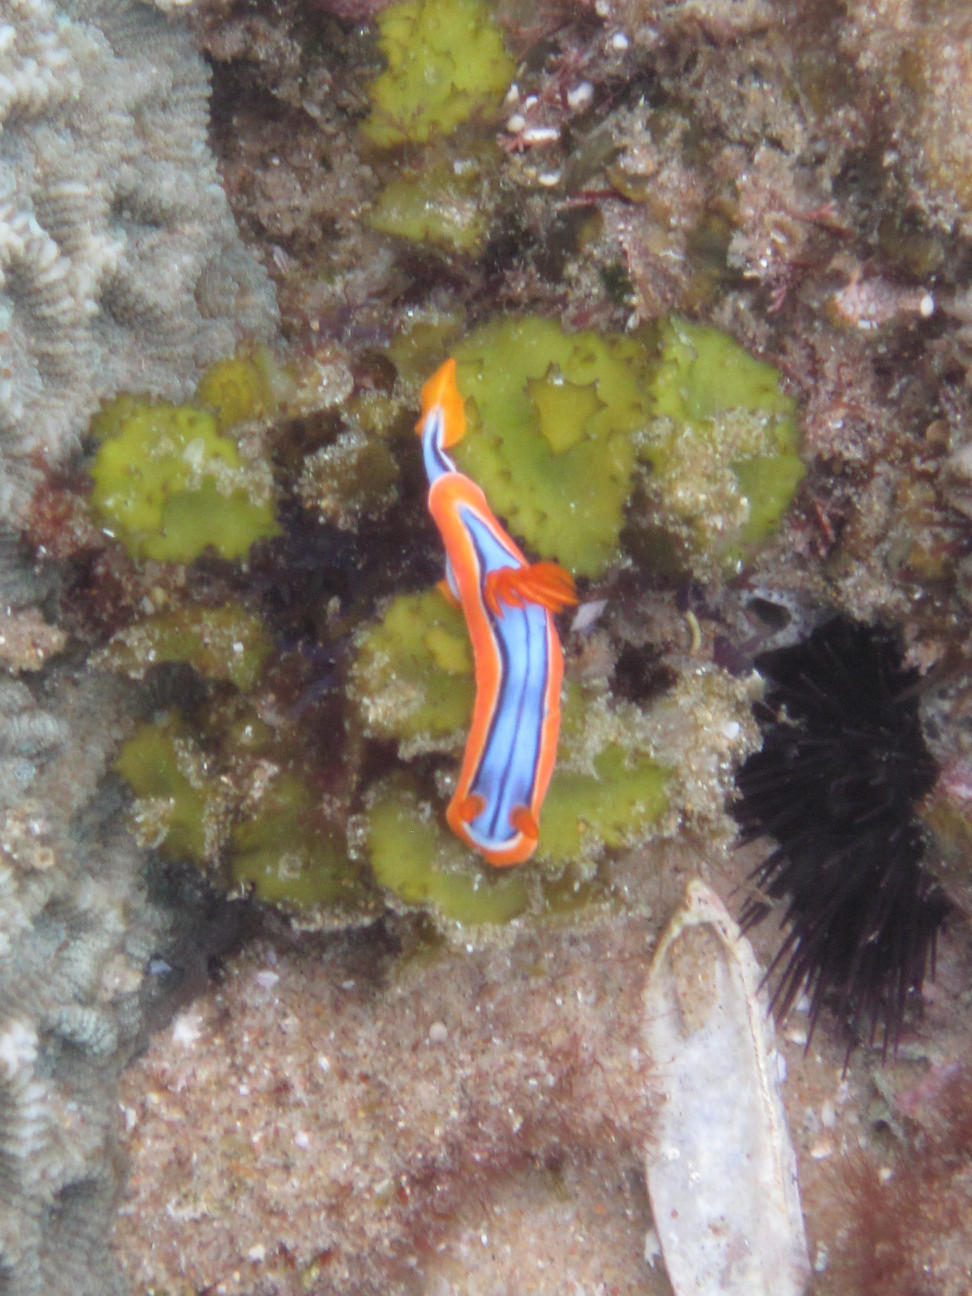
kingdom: Animalia
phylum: Mollusca
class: Gastropoda
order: Nudibranchia
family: Chromodorididae
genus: Chromodoris
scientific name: Chromodoris hamiltoni
